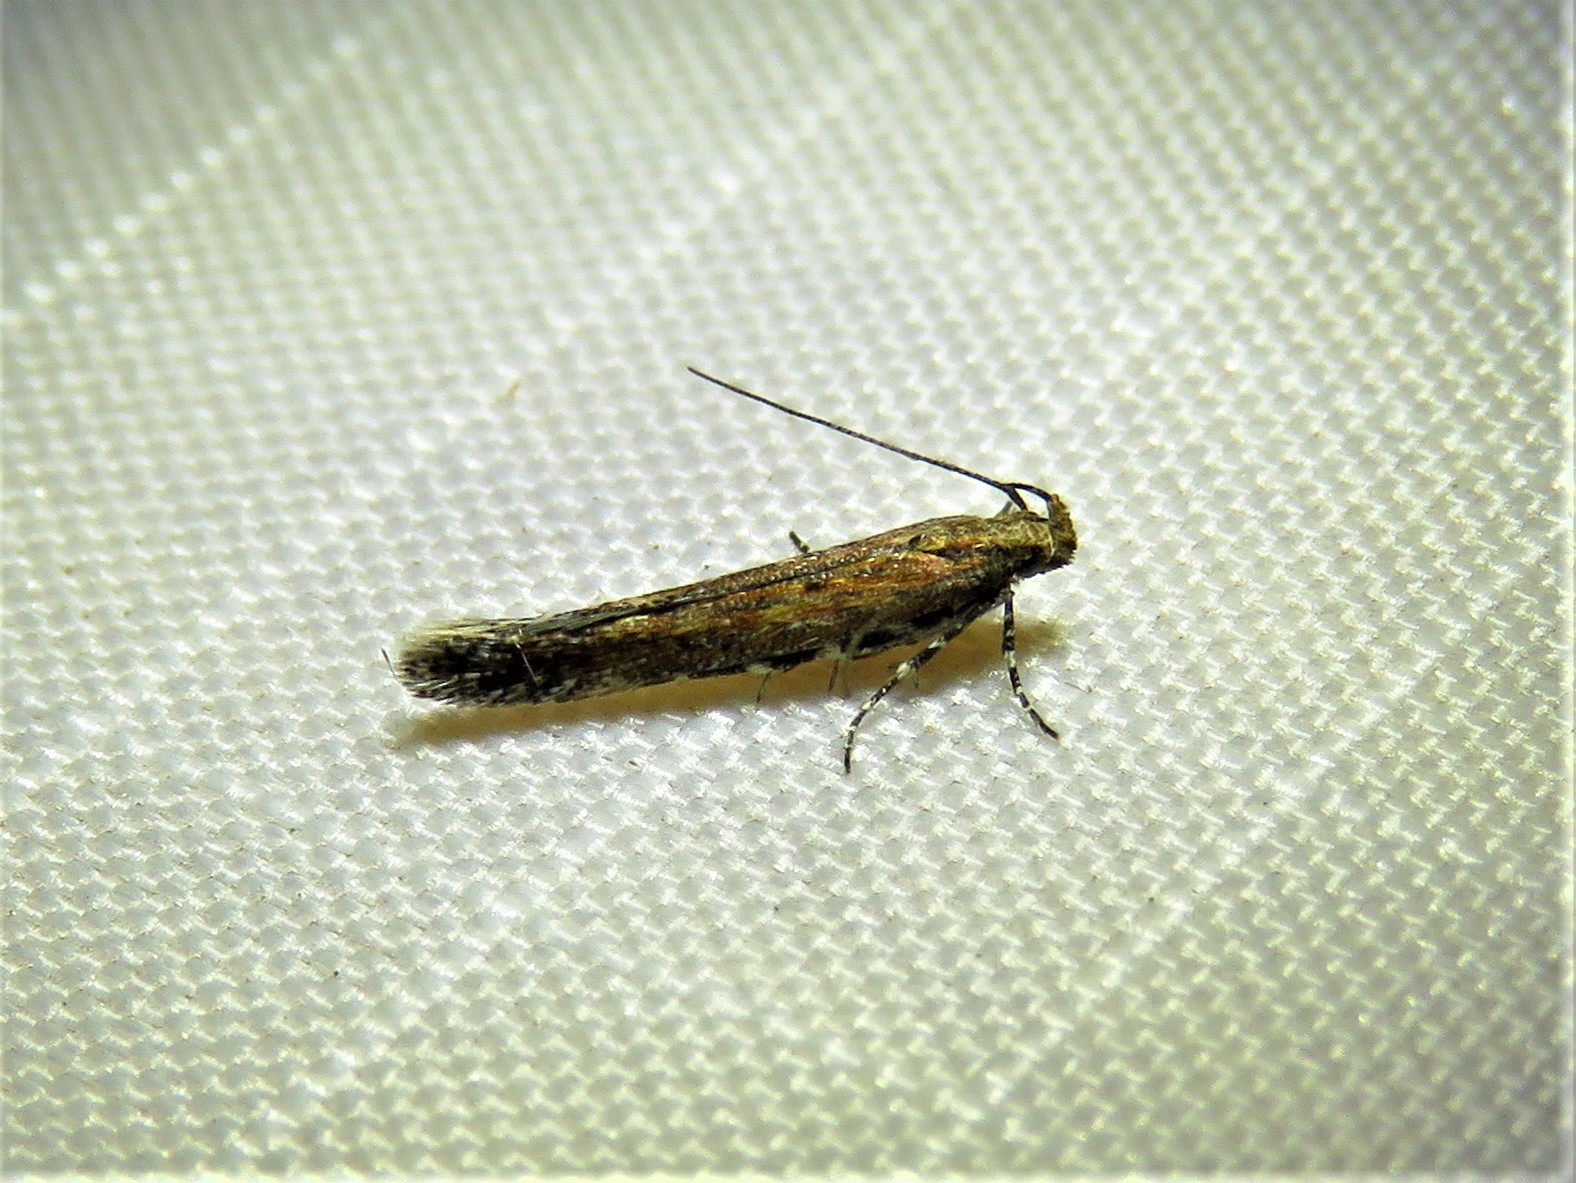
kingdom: Animalia
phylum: Arthropoda
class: Insecta
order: Lepidoptera
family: Gelechiidae
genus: Gnorimoschema
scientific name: Gnorimoschema saphirinella
